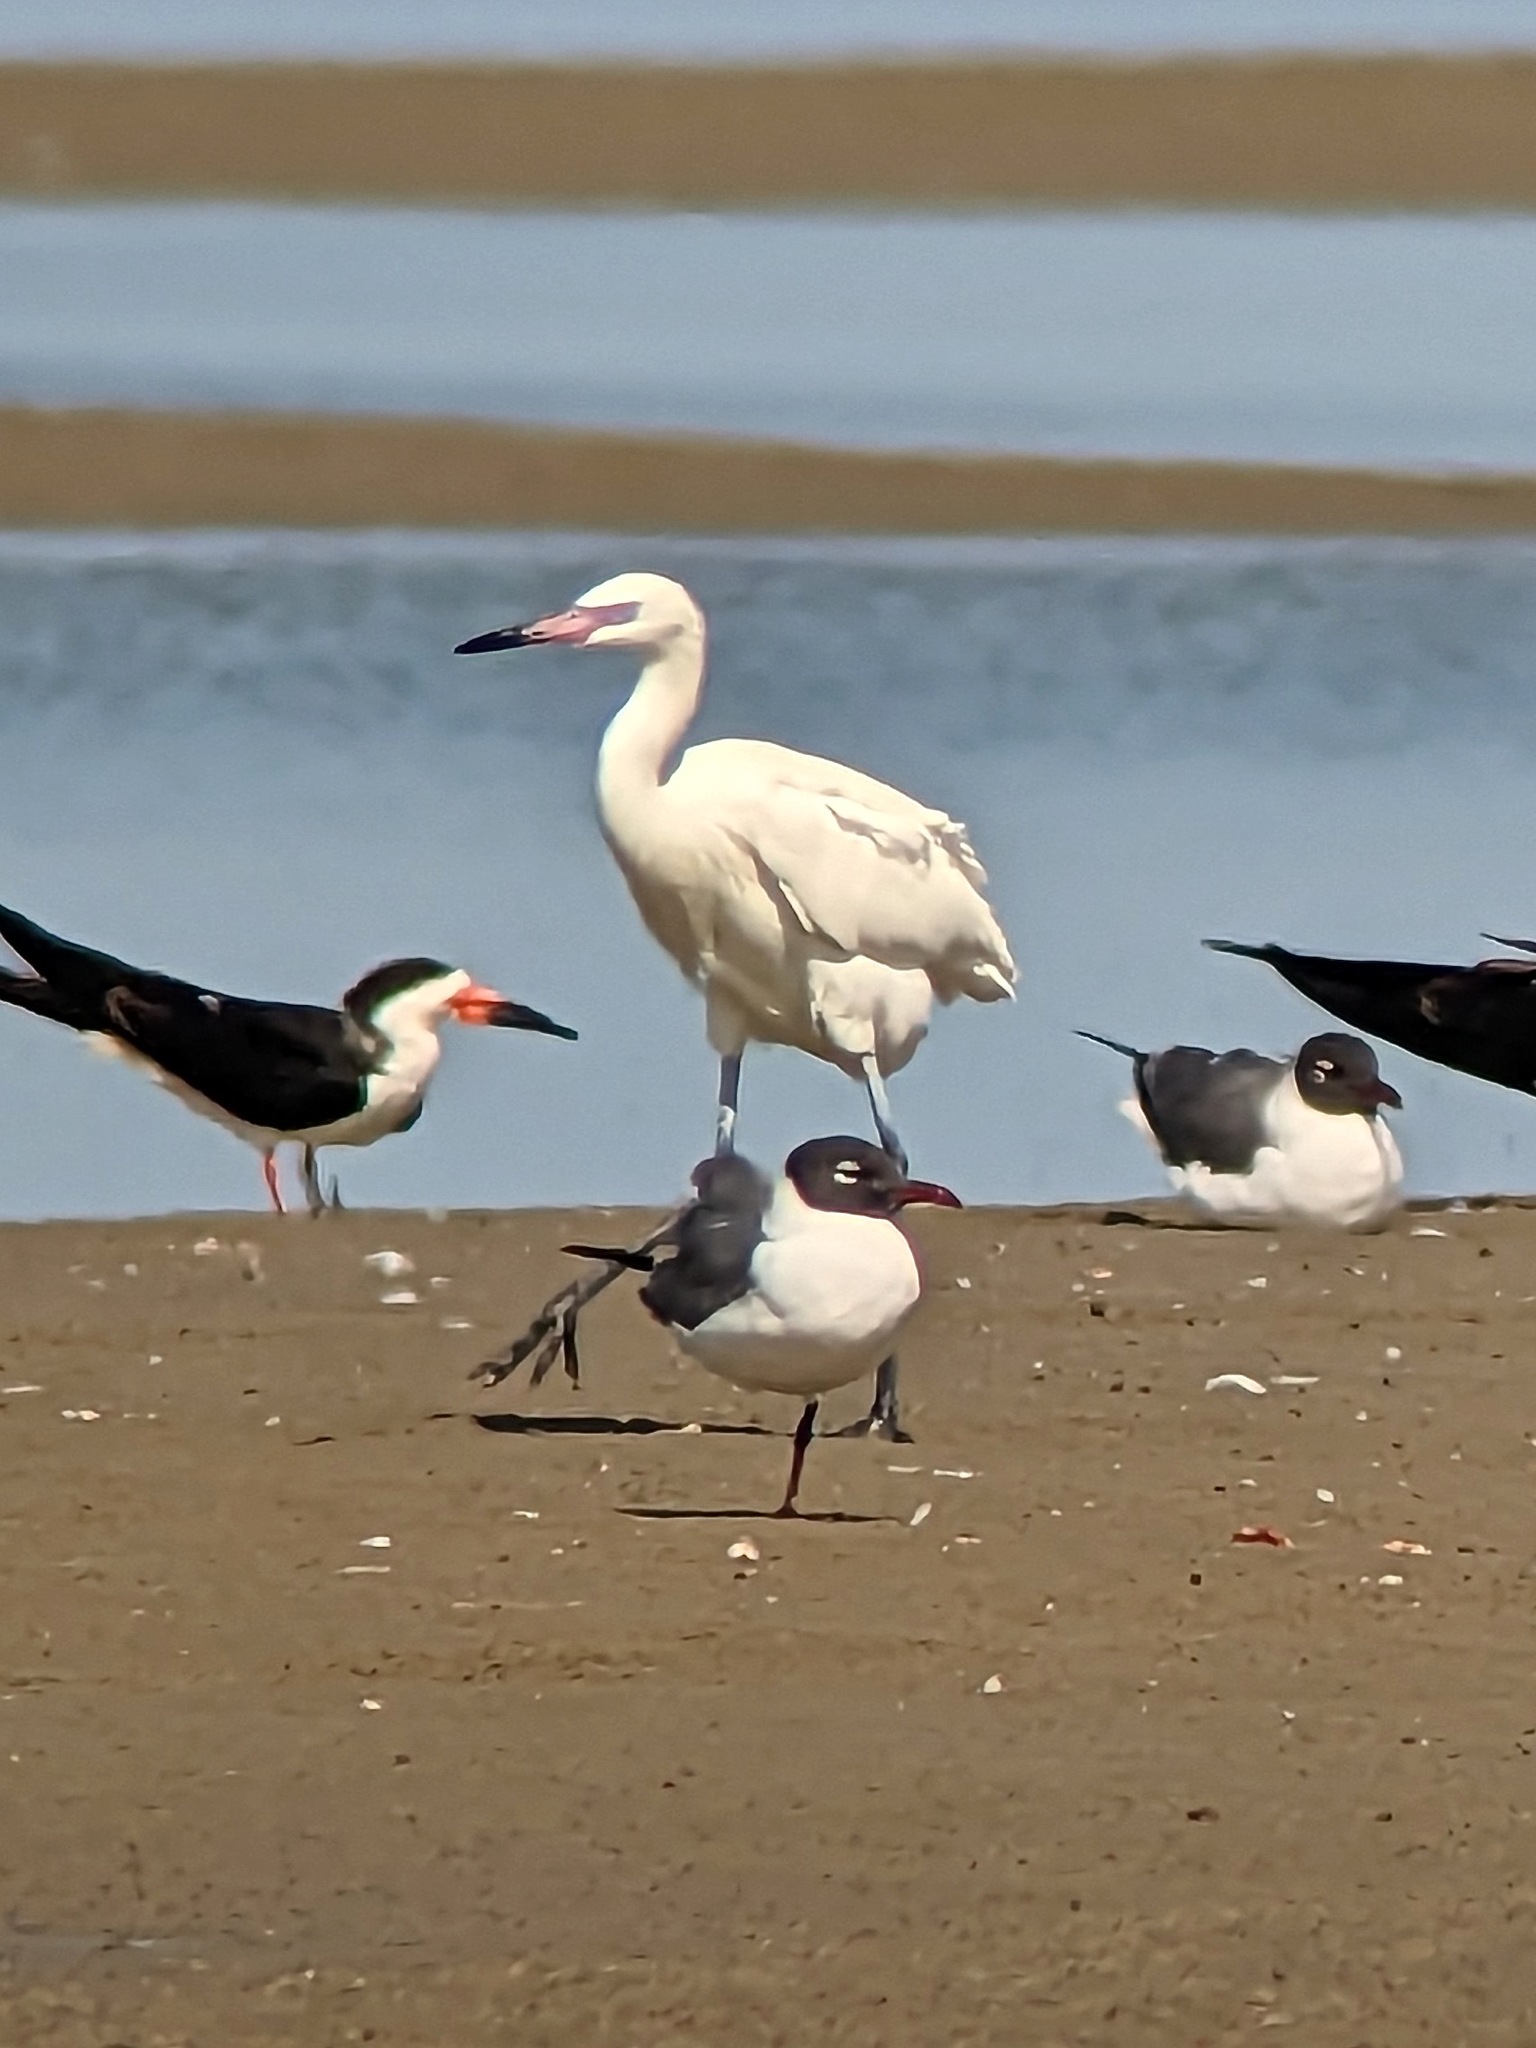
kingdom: Animalia
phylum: Chordata
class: Aves
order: Pelecaniformes
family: Ardeidae
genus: Egretta
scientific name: Egretta rufescens
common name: Reddish egret
